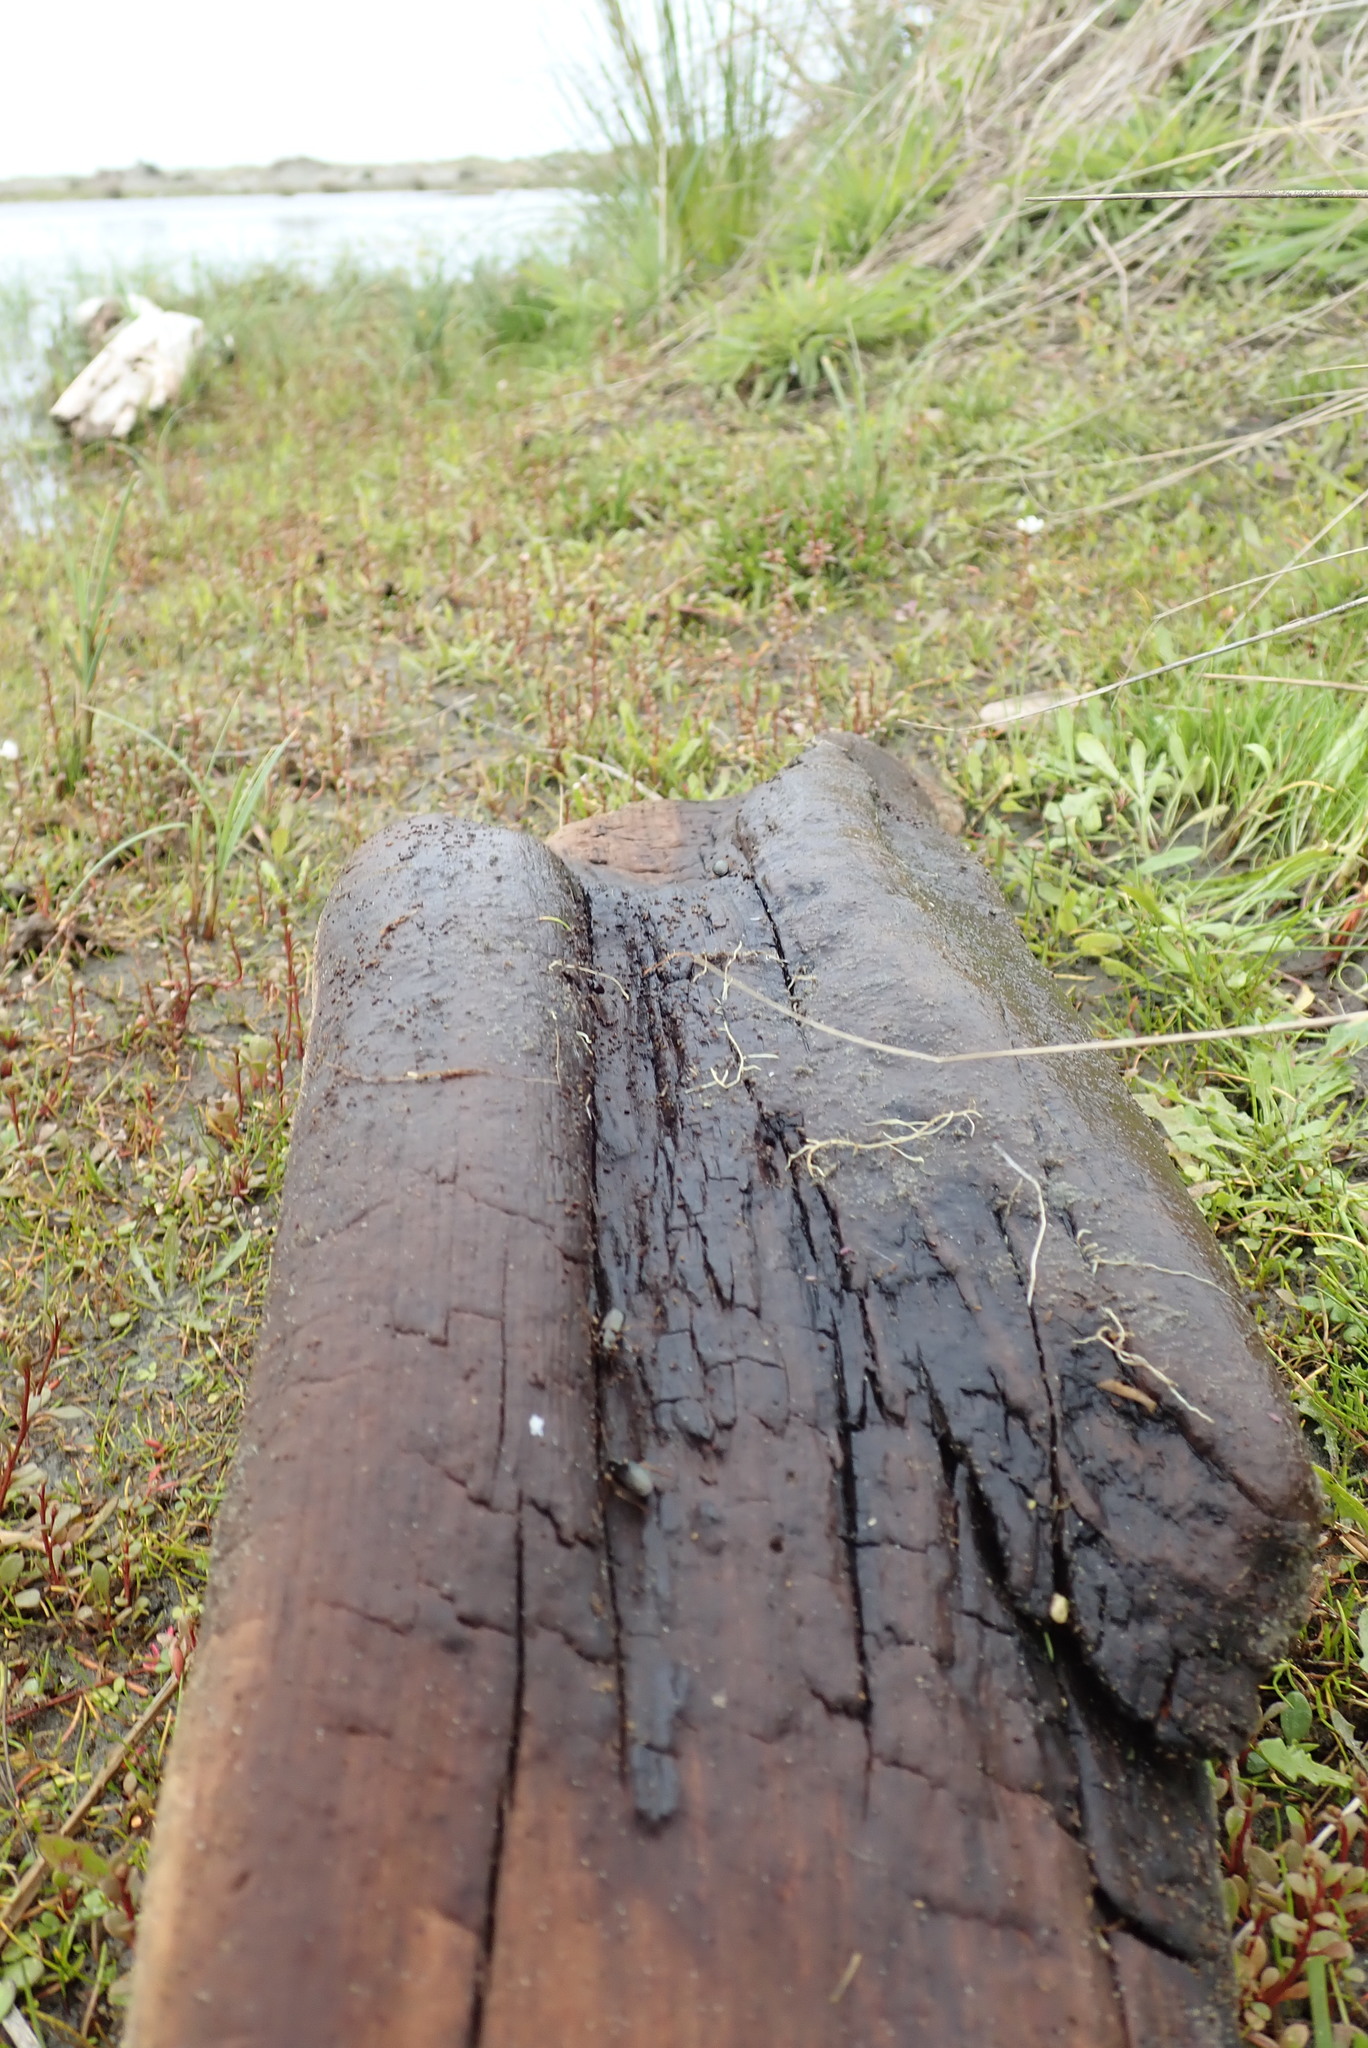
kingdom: Animalia
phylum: Arthropoda
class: Insecta
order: Coleoptera
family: Carabidae
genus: Notagonum
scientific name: Notagonum submetallicum
